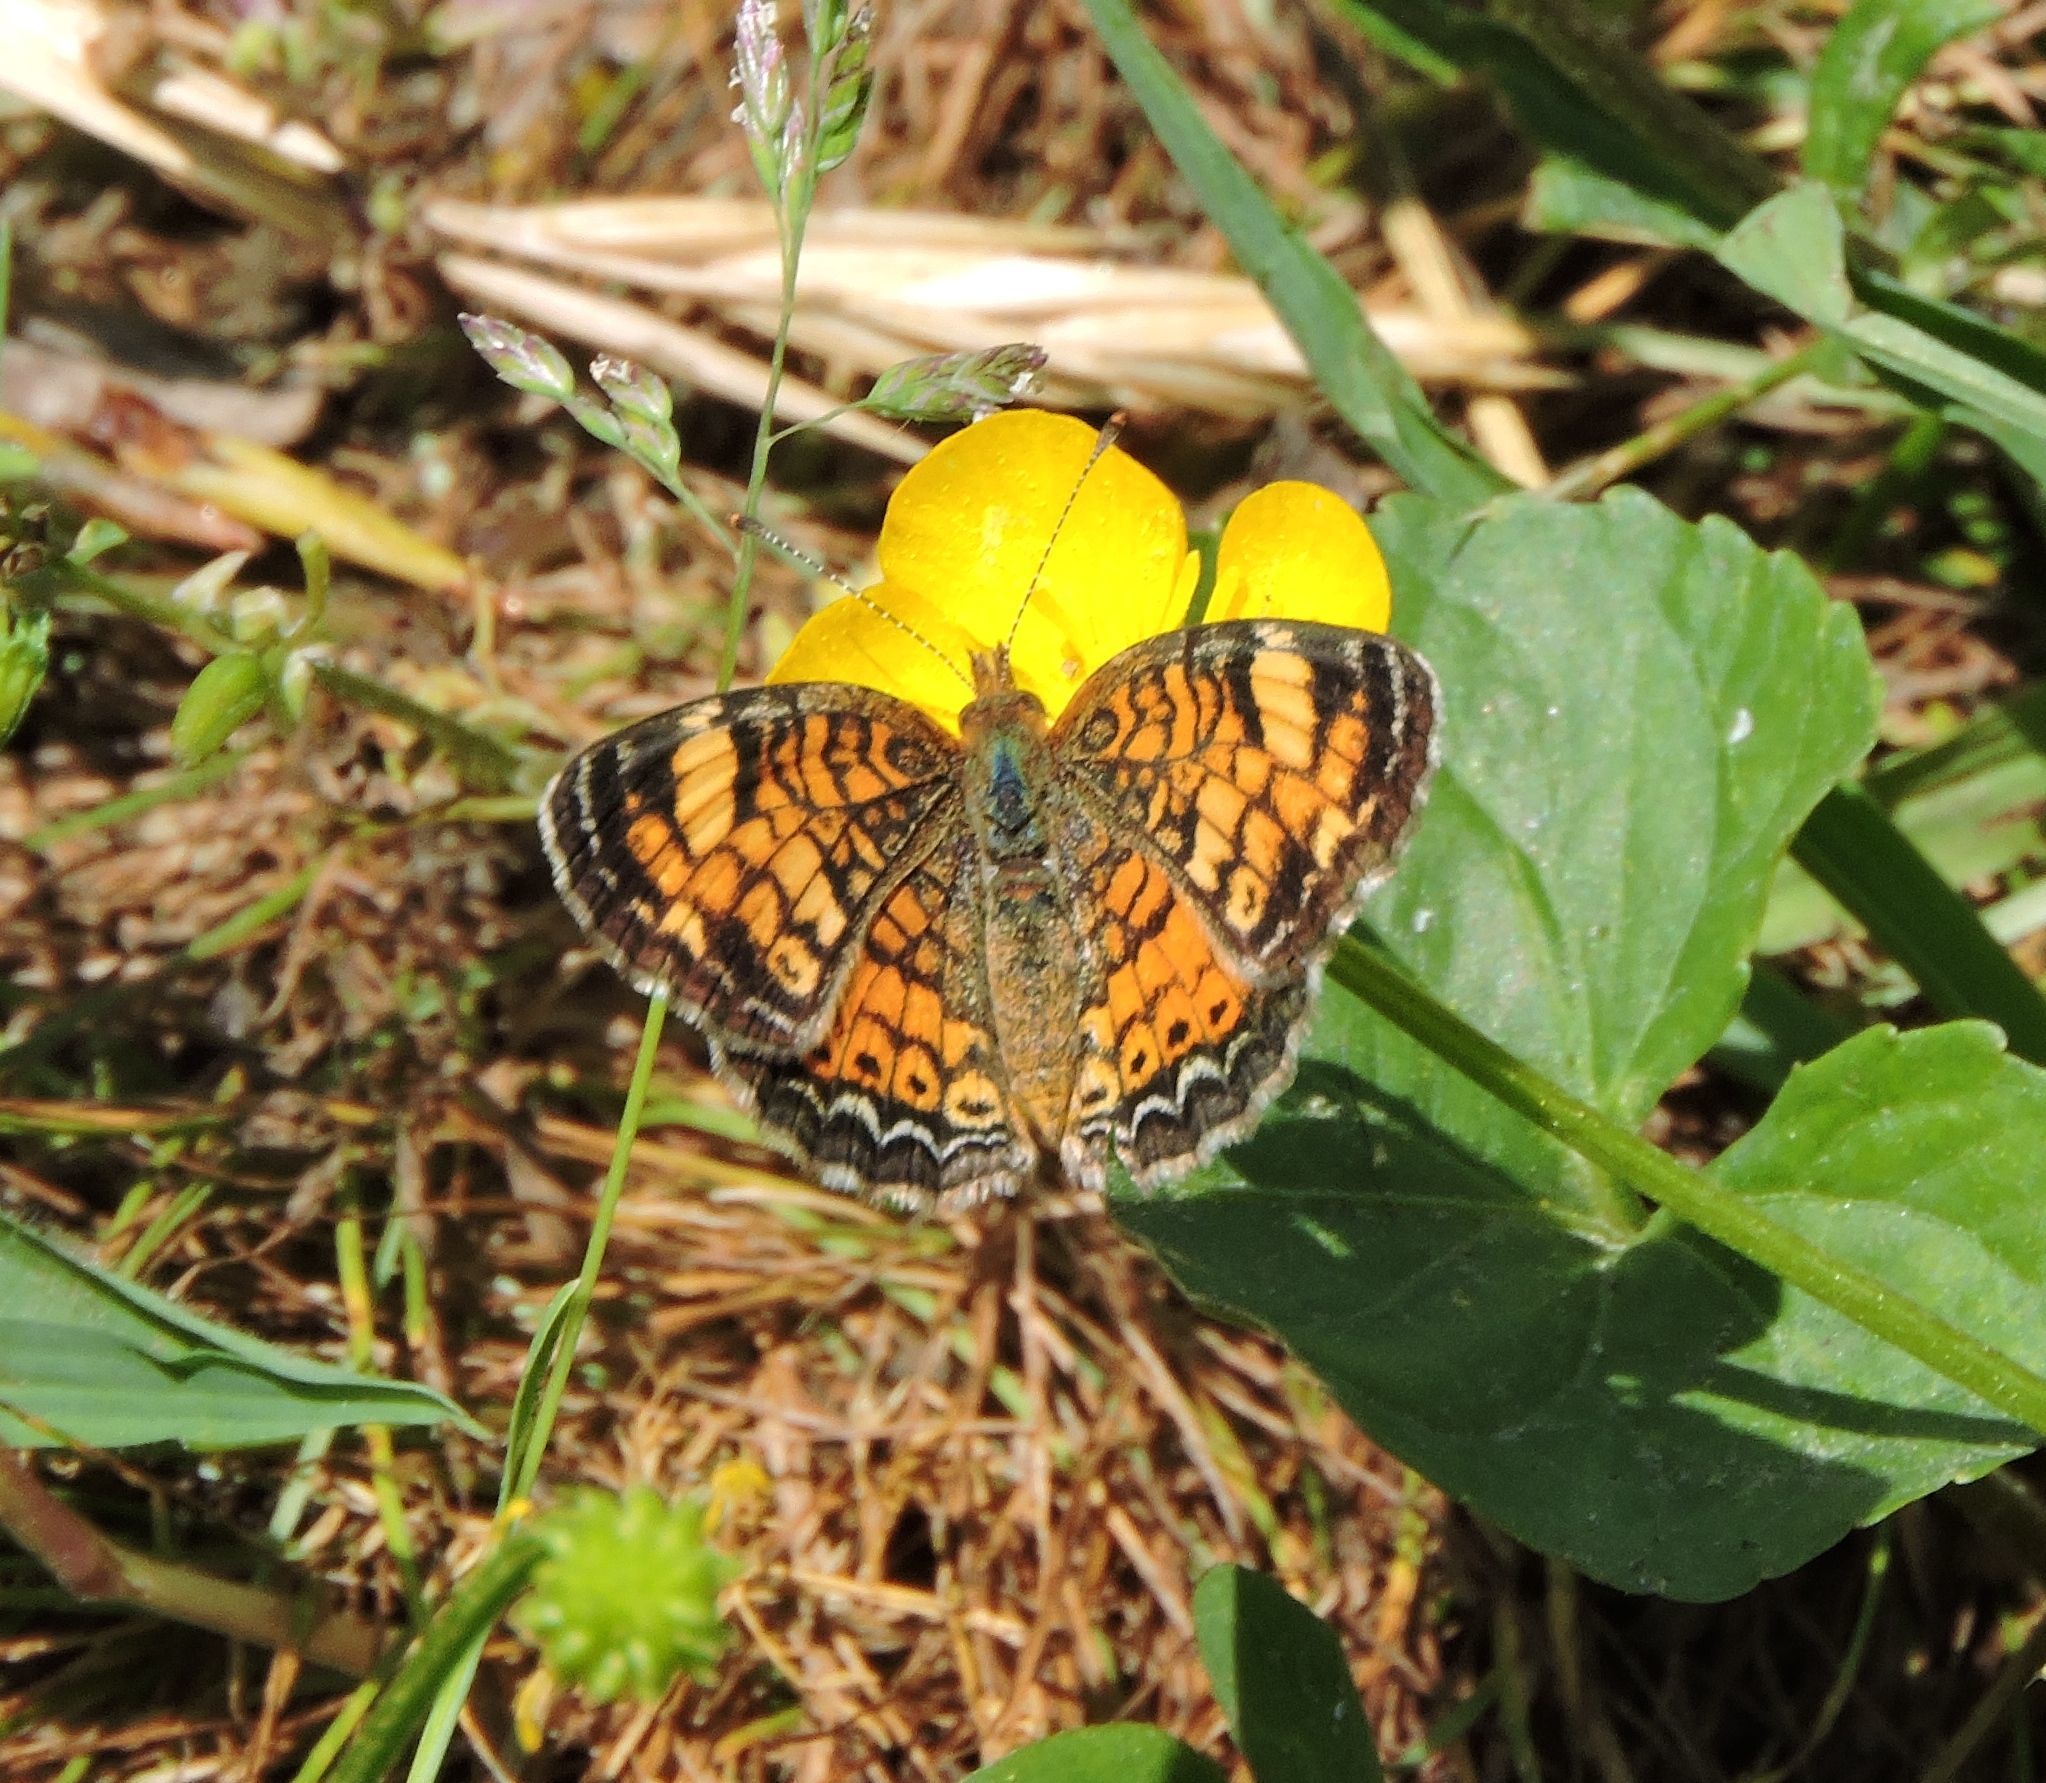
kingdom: Animalia
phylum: Arthropoda
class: Insecta
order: Lepidoptera
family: Nymphalidae
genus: Phyciodes
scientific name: Phyciodes tharos
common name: Pearl crescent
